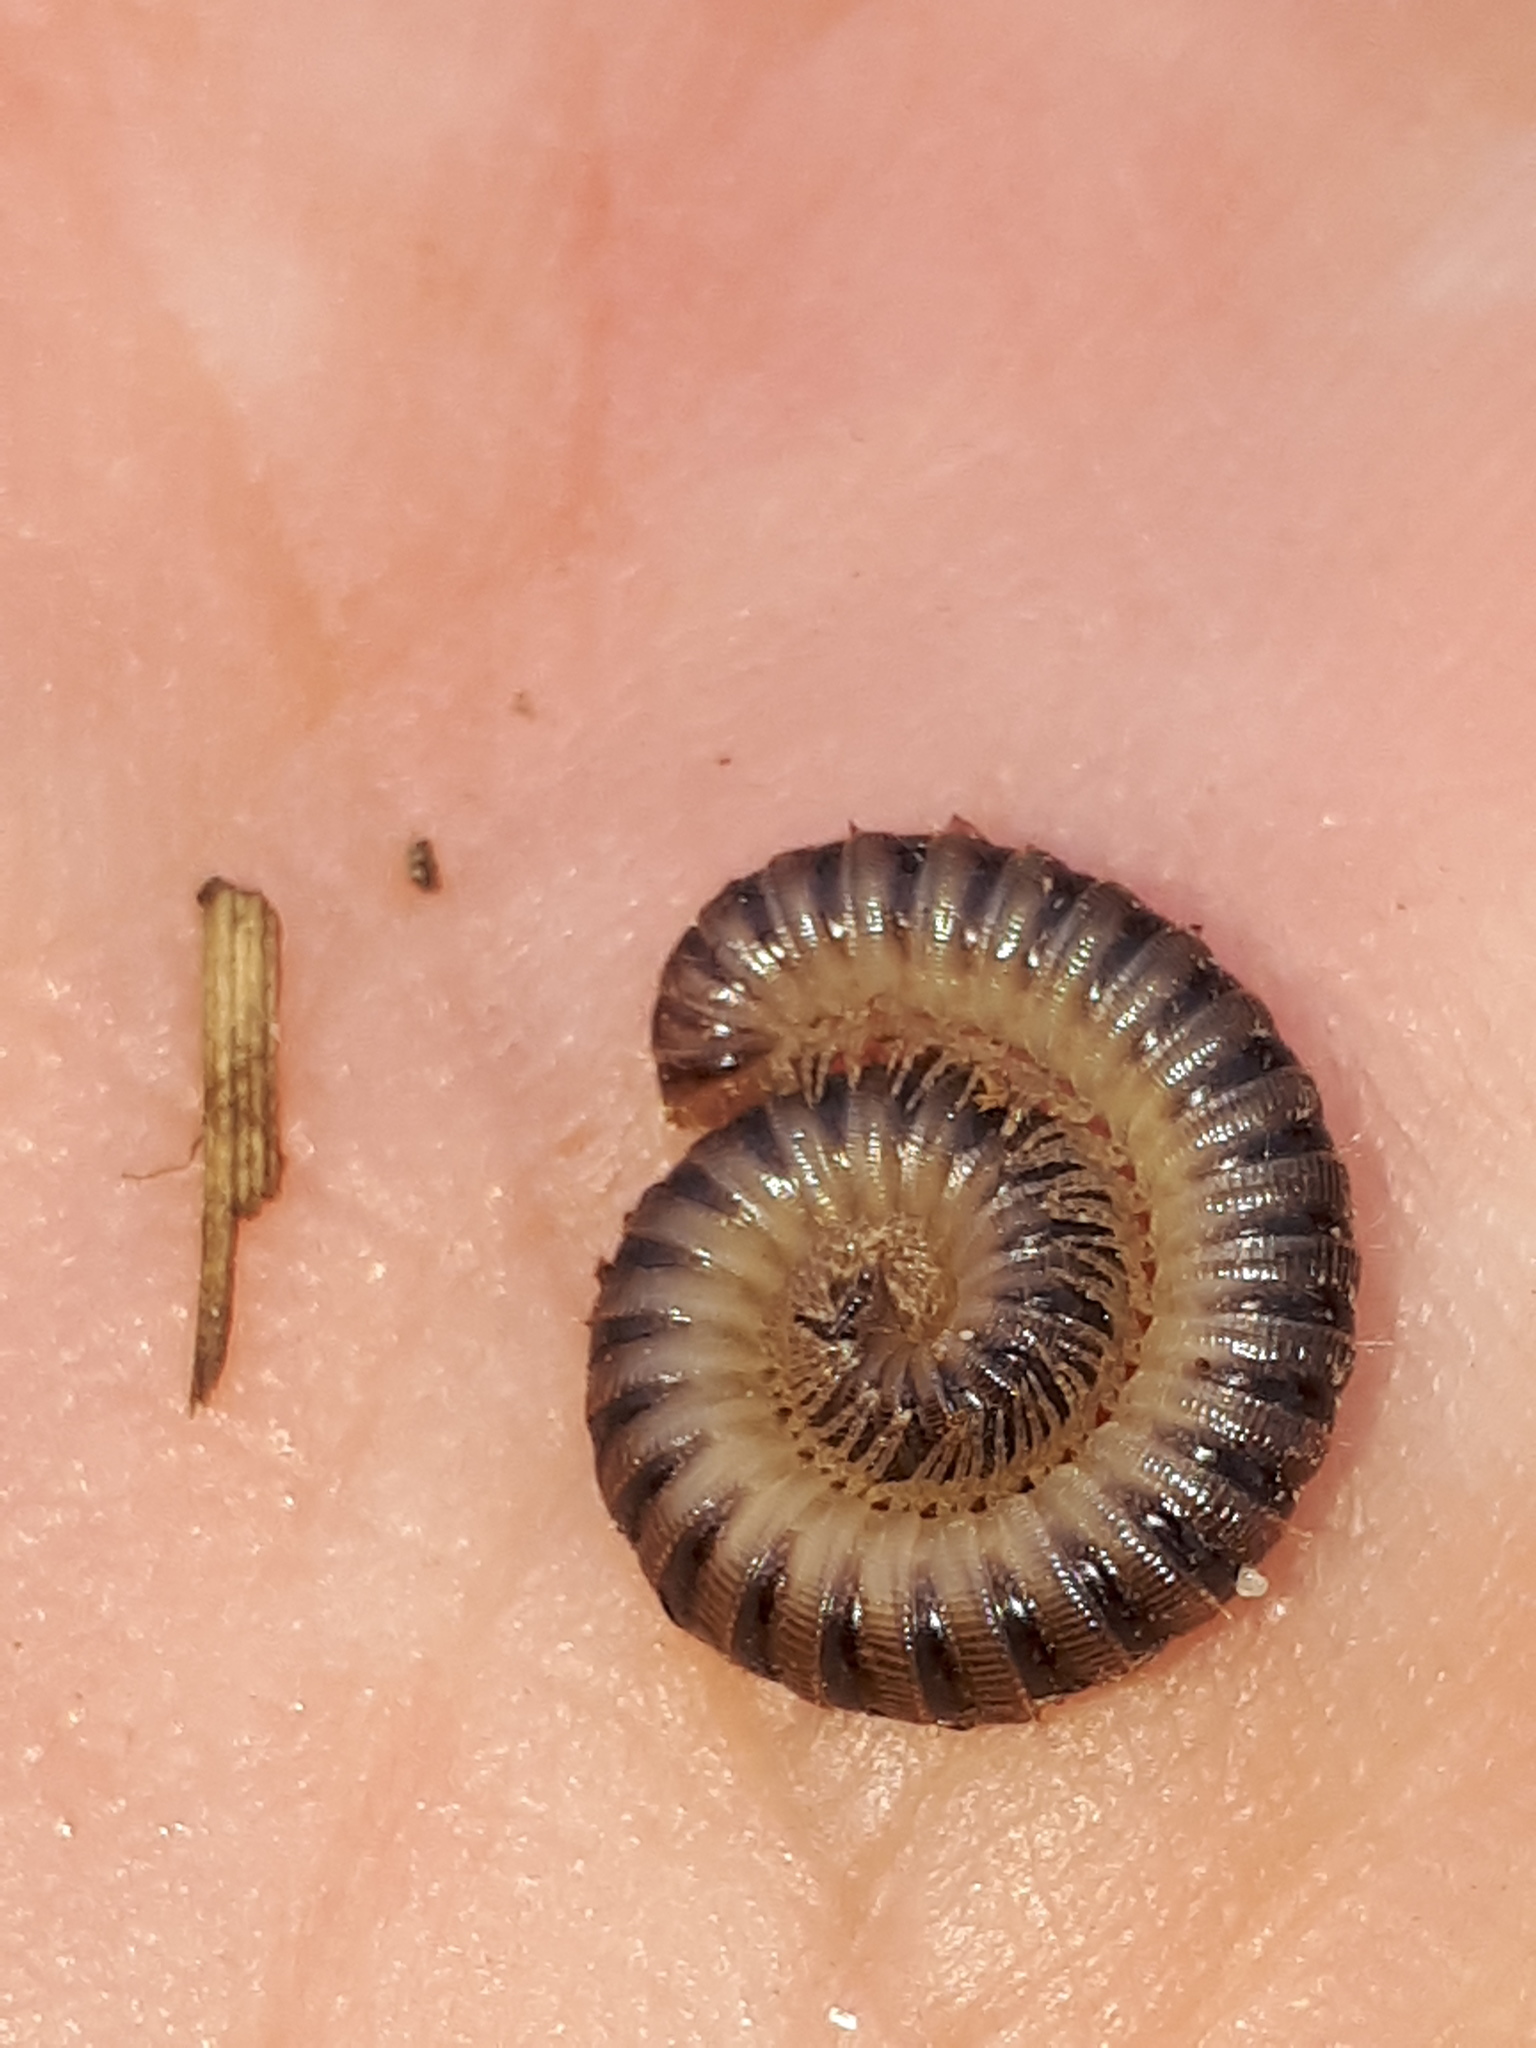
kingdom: Animalia
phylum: Arthropoda
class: Diplopoda
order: Julida
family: Julidae
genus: Unciger
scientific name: Unciger foetidus
